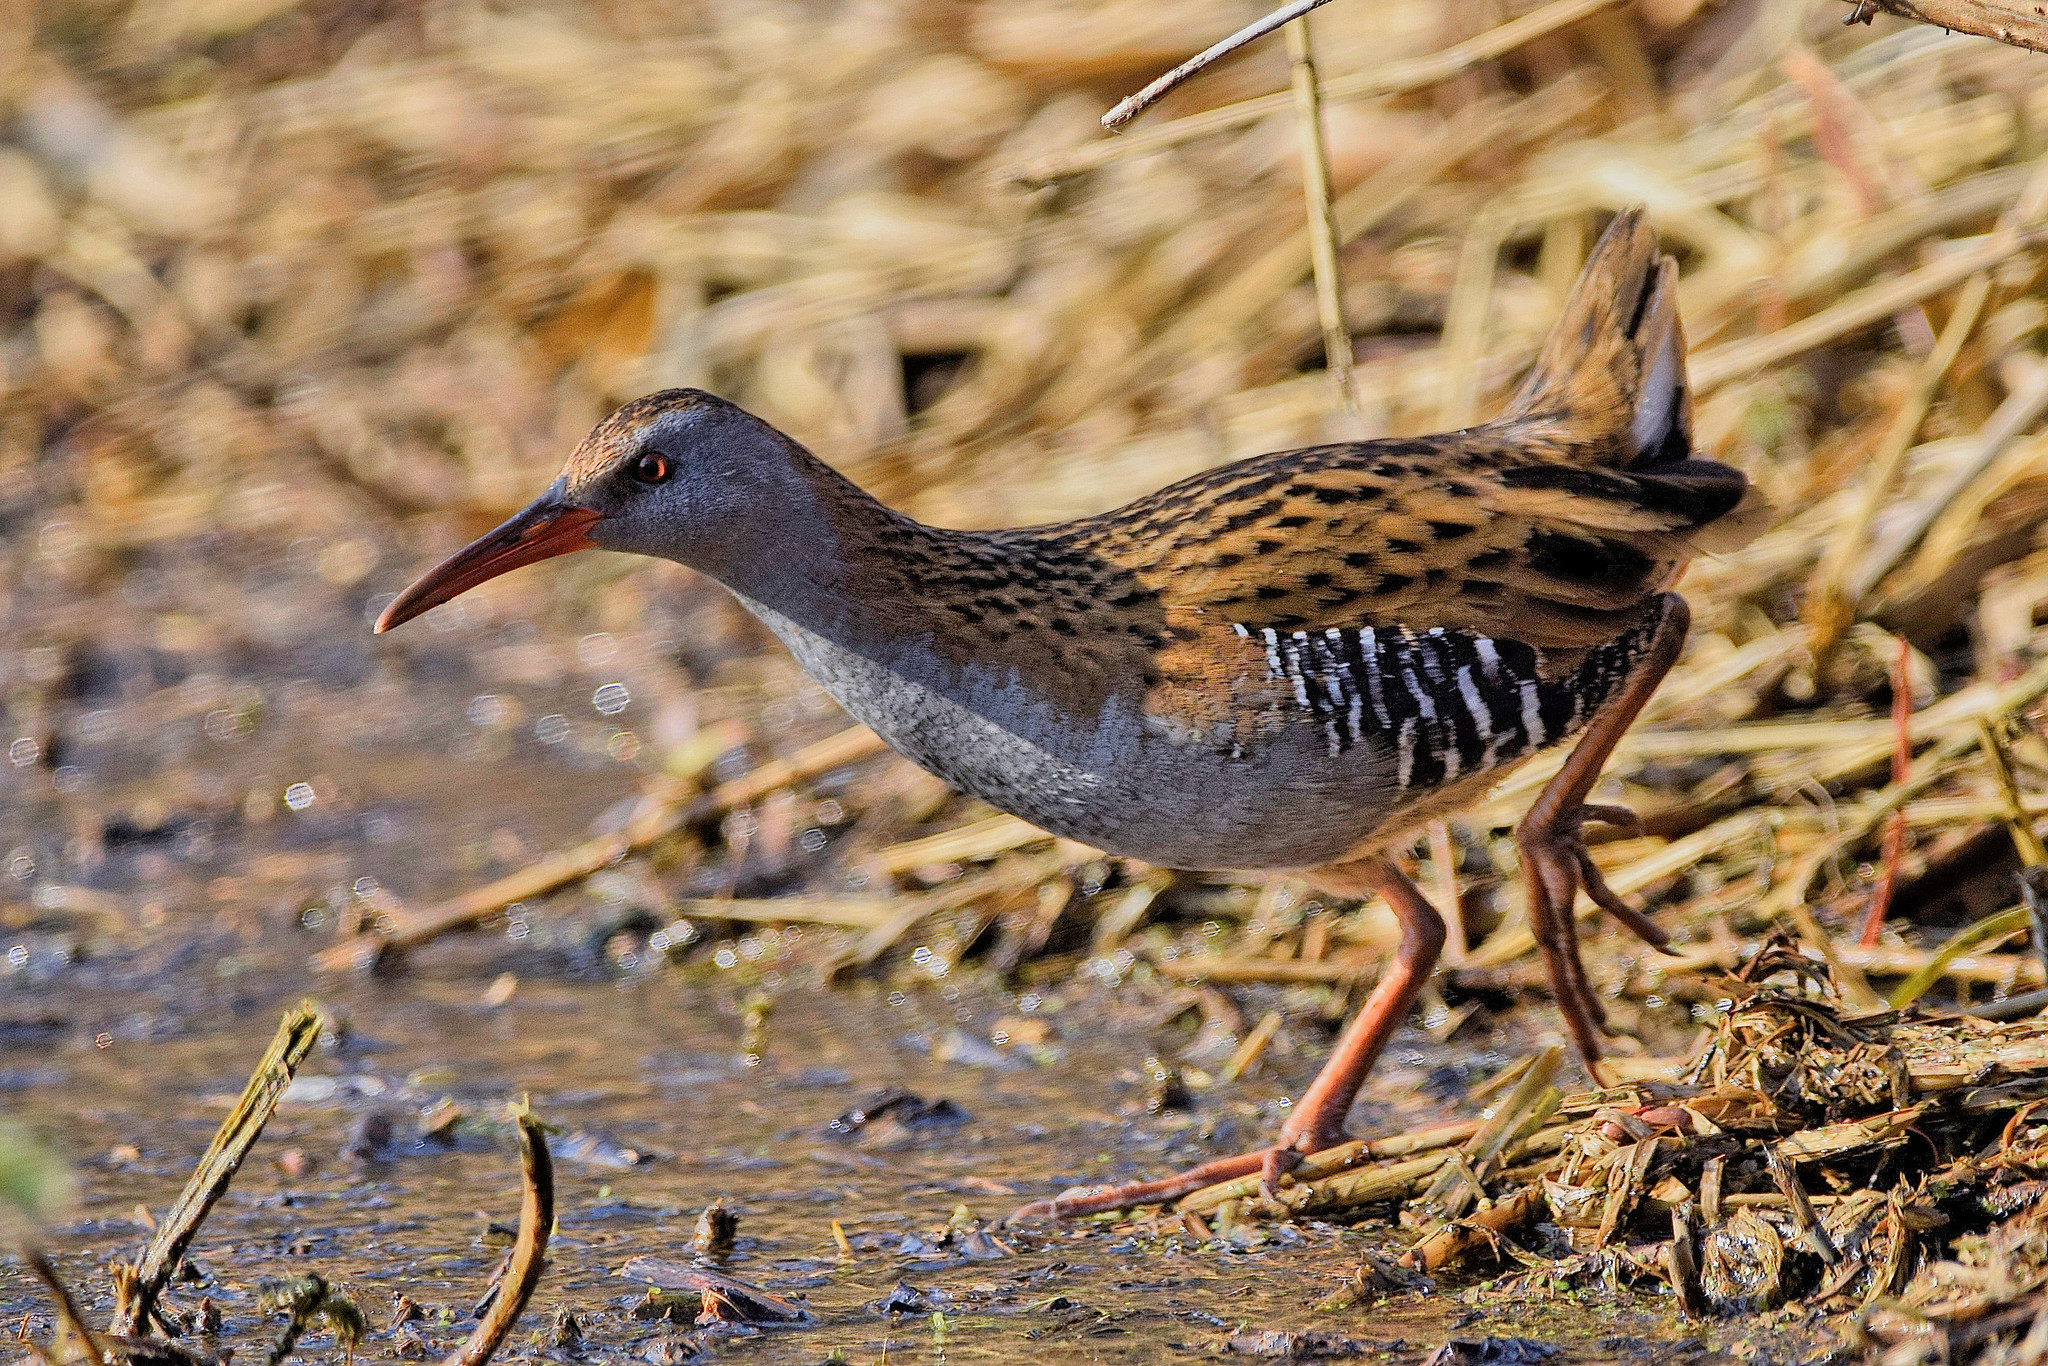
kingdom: Animalia
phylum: Chordata
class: Aves
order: Gruiformes
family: Rallidae
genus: Rallus
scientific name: Rallus aquaticus
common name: Water rail
